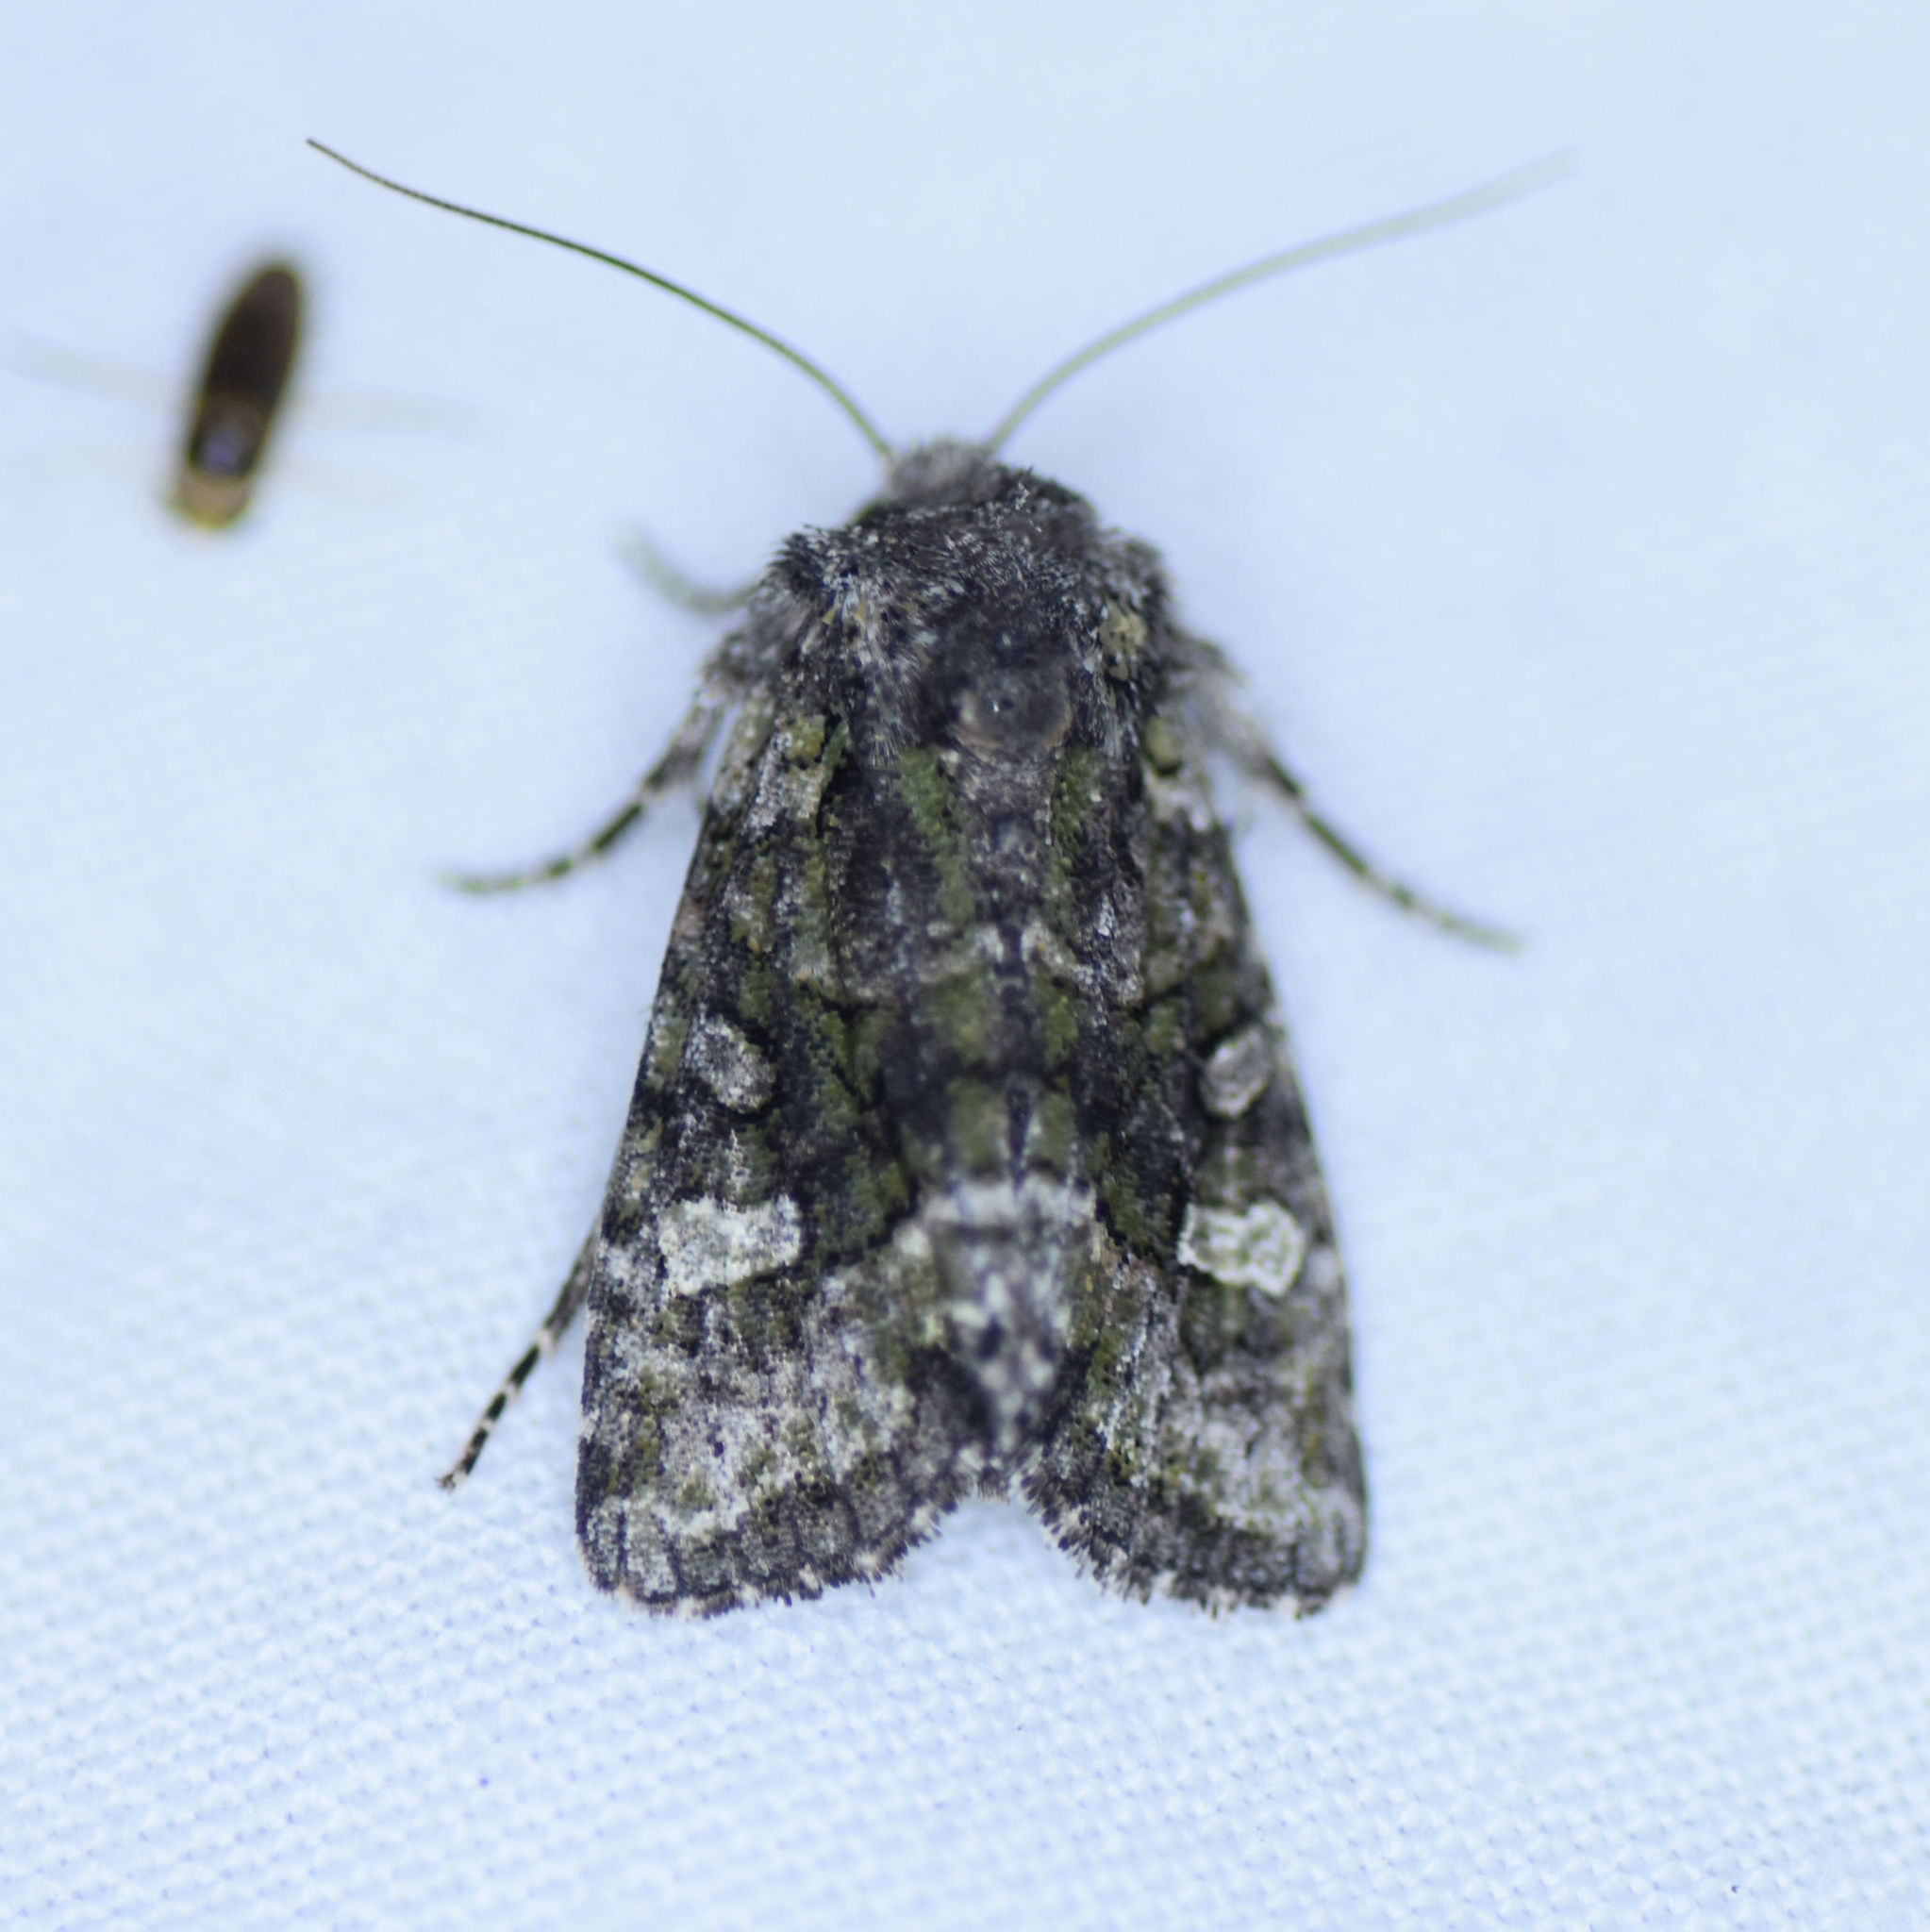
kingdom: Animalia
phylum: Arthropoda
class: Insecta
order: Lepidoptera
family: Noctuidae
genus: Lacinipolia
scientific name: Lacinipolia olivacea
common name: Olive arches moth
